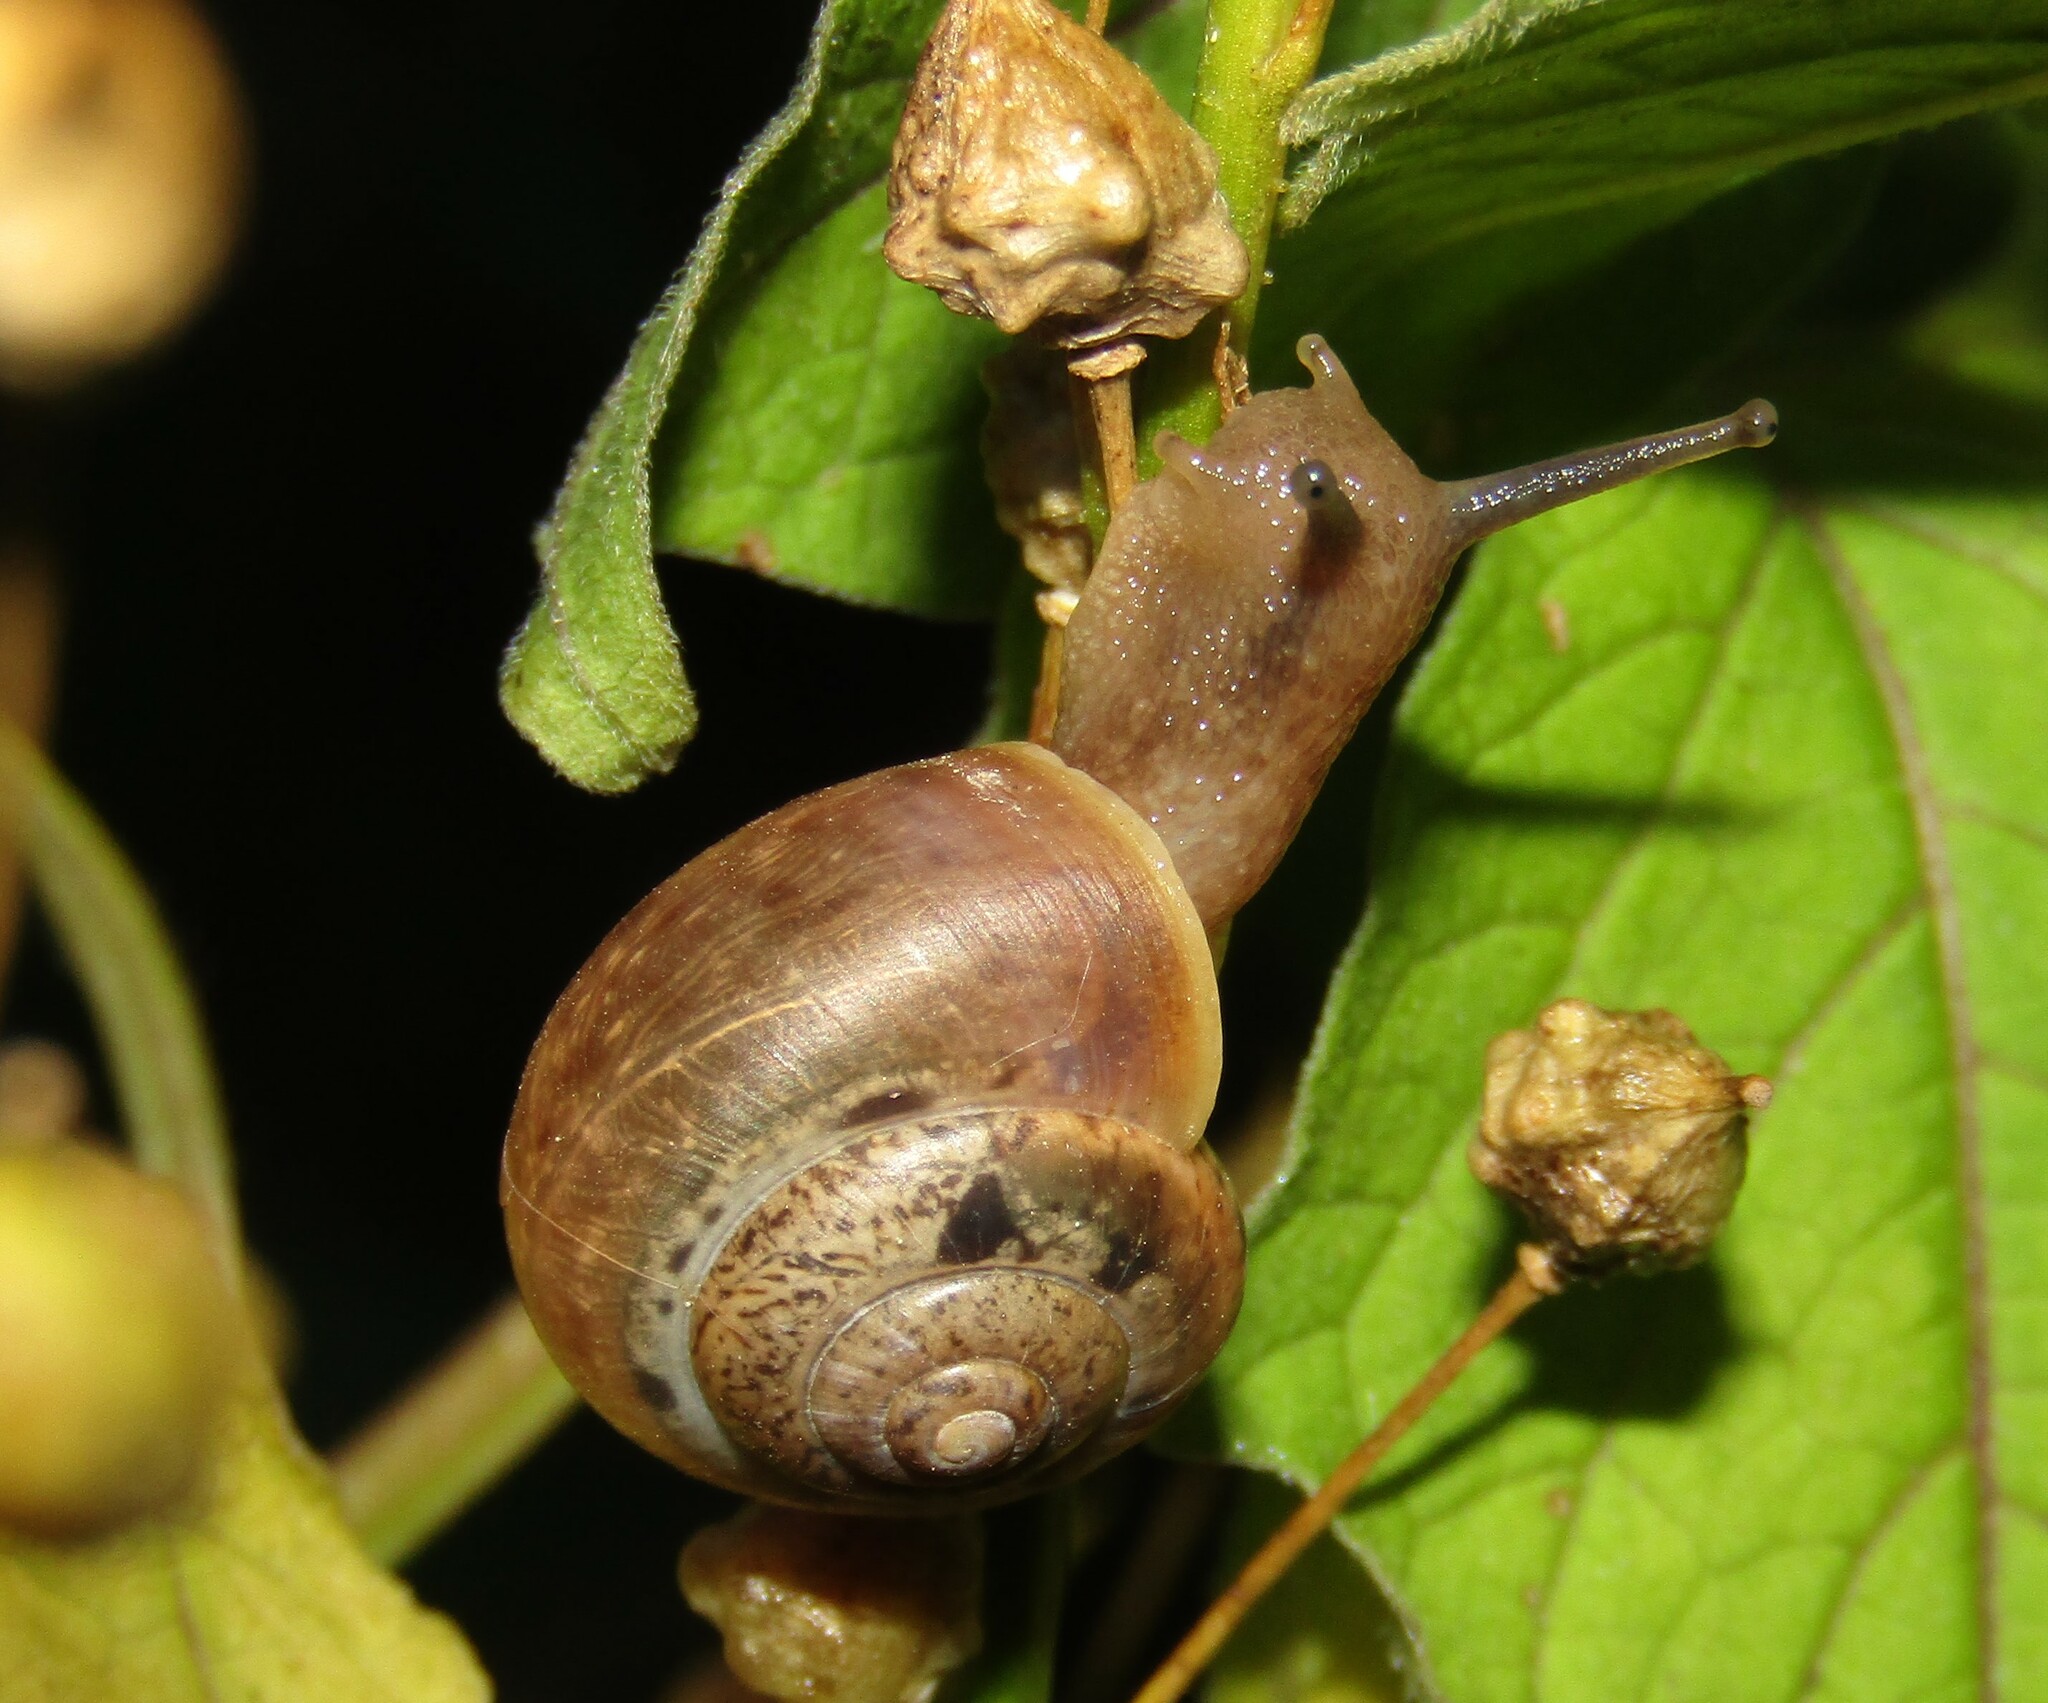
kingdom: Animalia
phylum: Mollusca
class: Gastropoda
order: Stylommatophora
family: Camaenidae
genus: Fruticicola
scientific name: Fruticicola fruticum
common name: Bush snail
